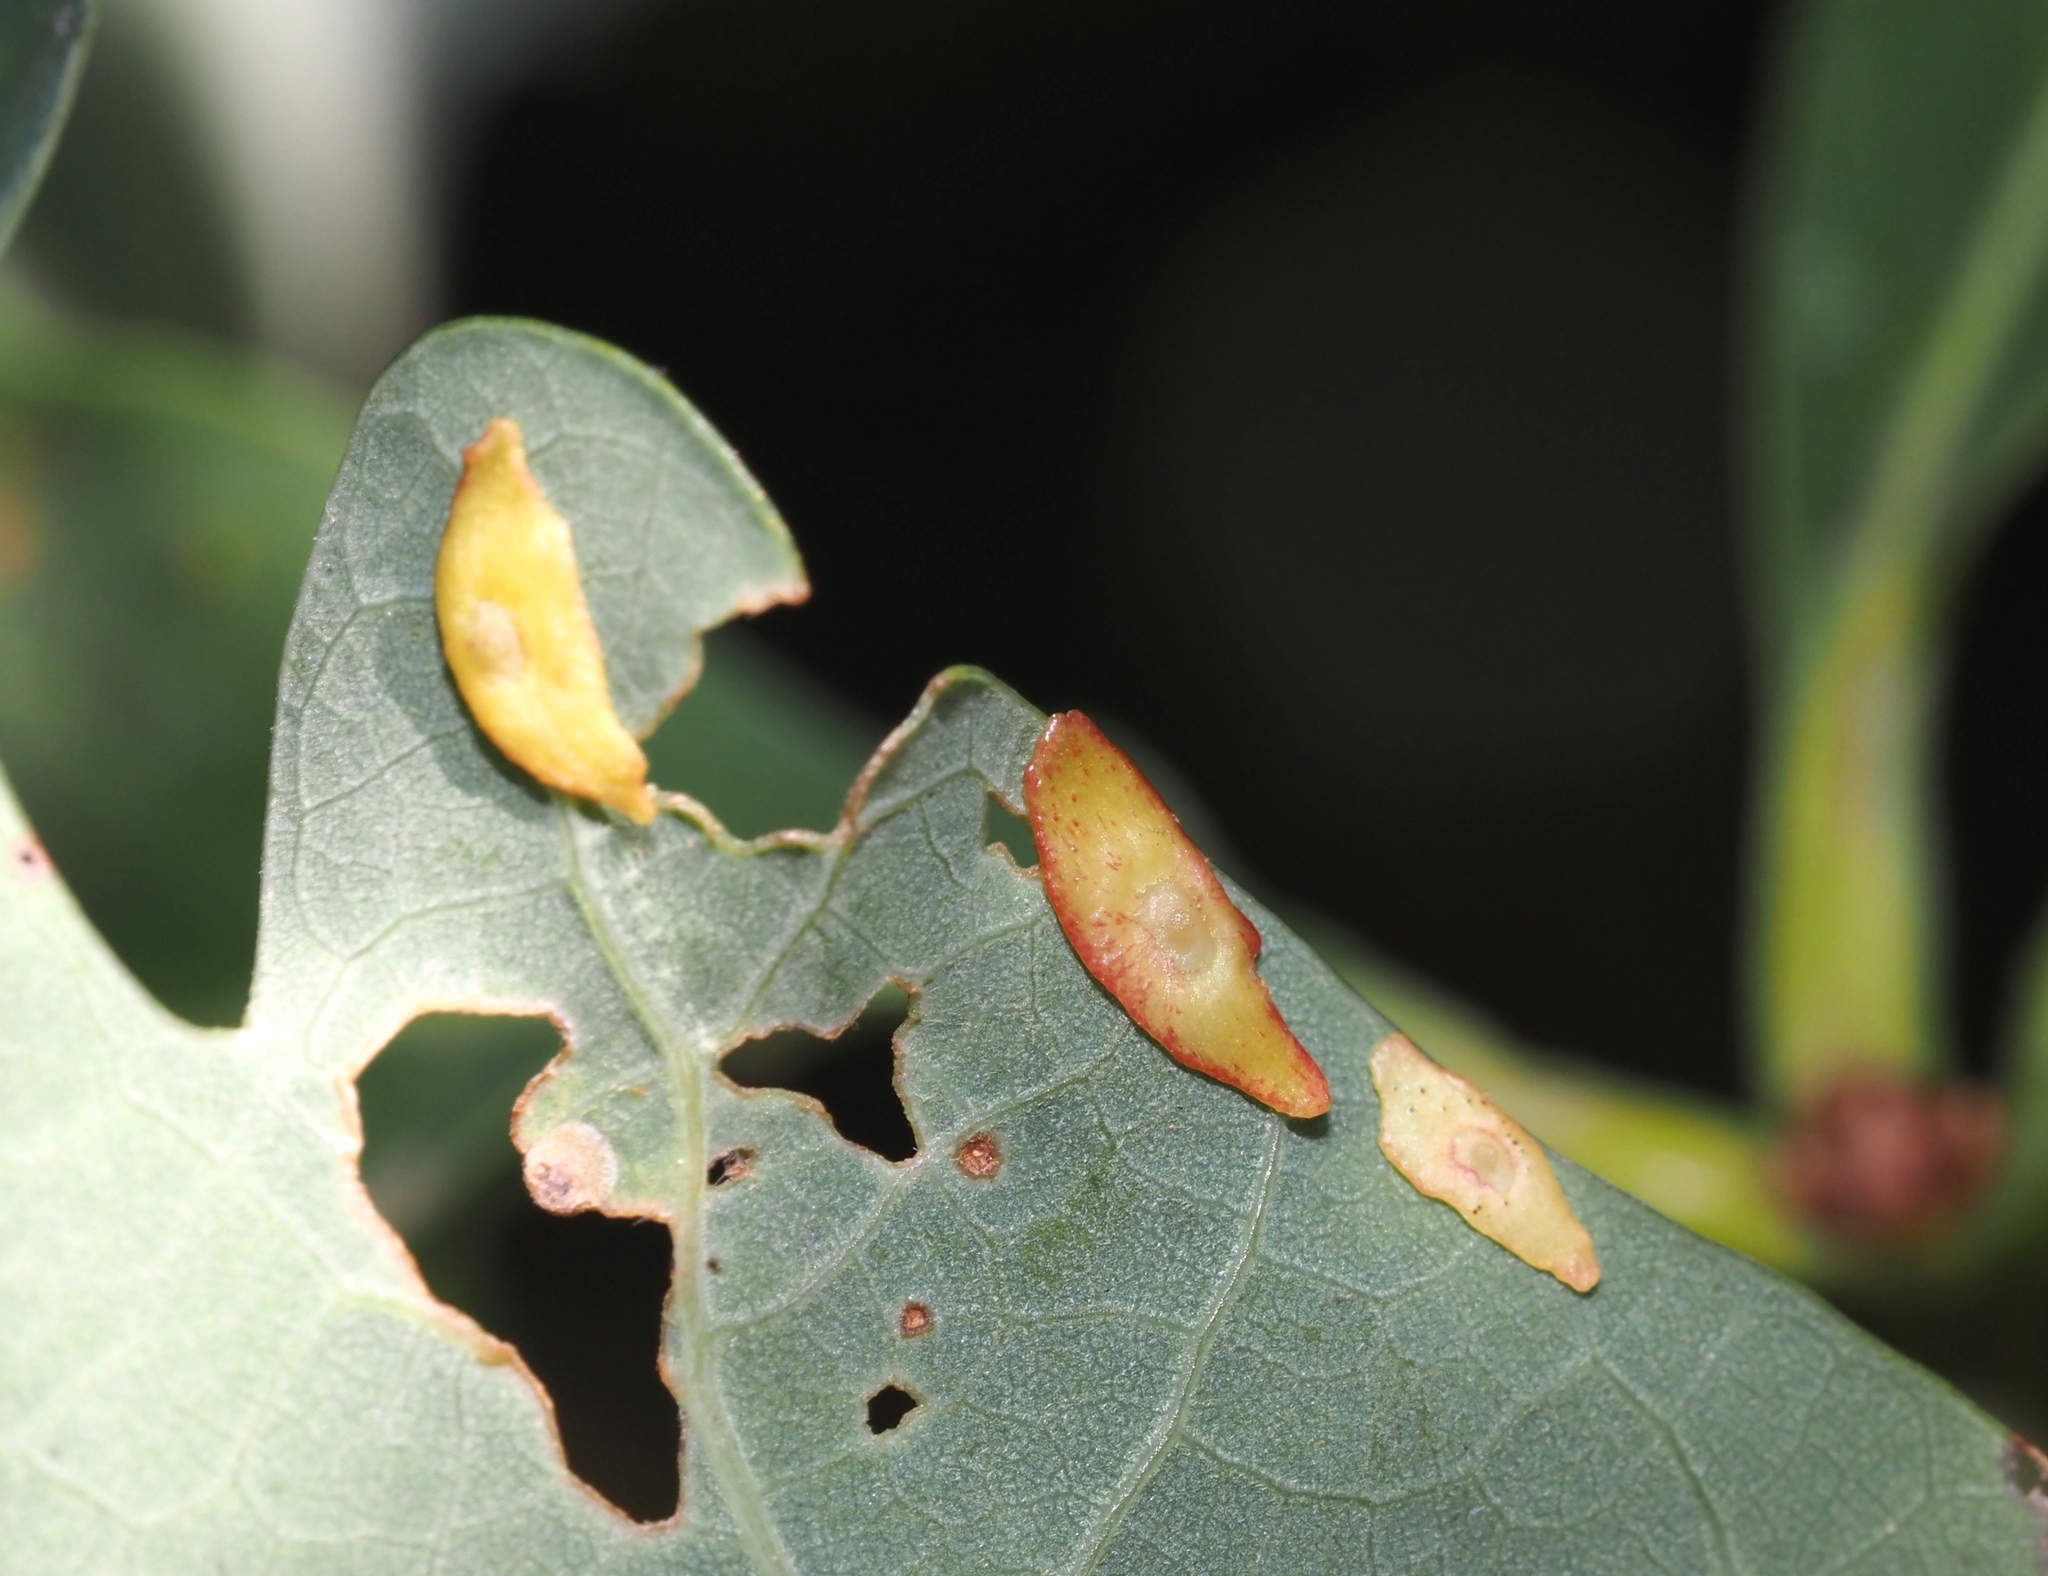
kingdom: Animalia
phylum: Arthropoda
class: Insecta
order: Hymenoptera
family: Cynipidae
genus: Phylloteras
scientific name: Phylloteras
